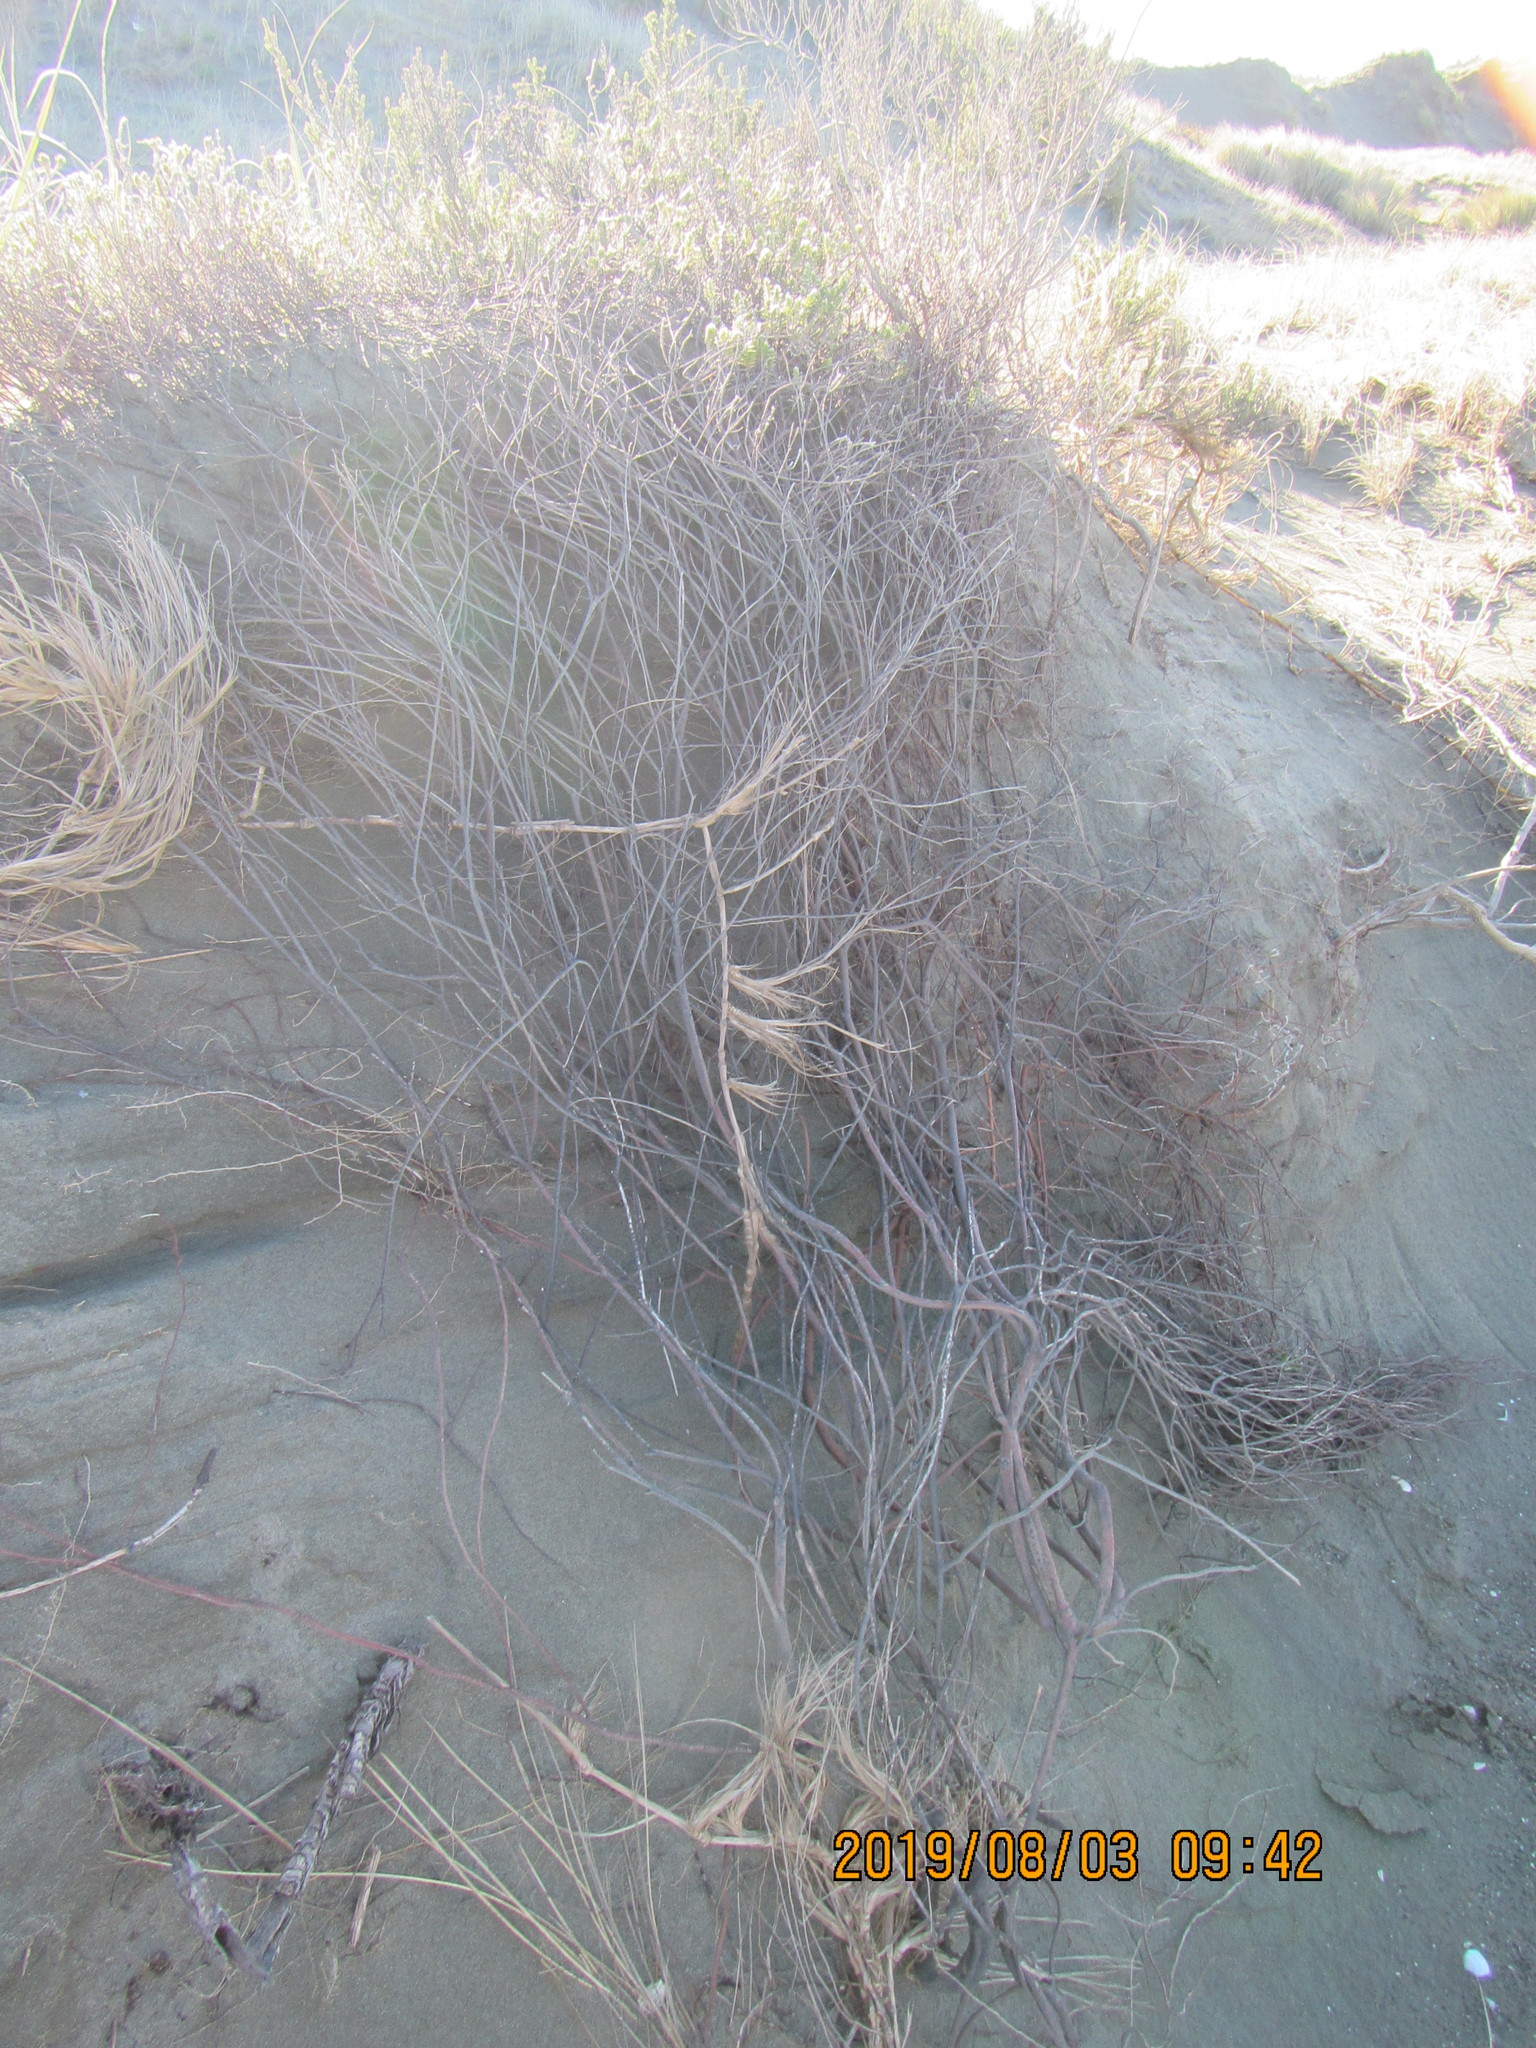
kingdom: Plantae
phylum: Tracheophyta
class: Magnoliopsida
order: Malvales
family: Thymelaeaceae
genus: Pimelea
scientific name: Pimelea villosa
